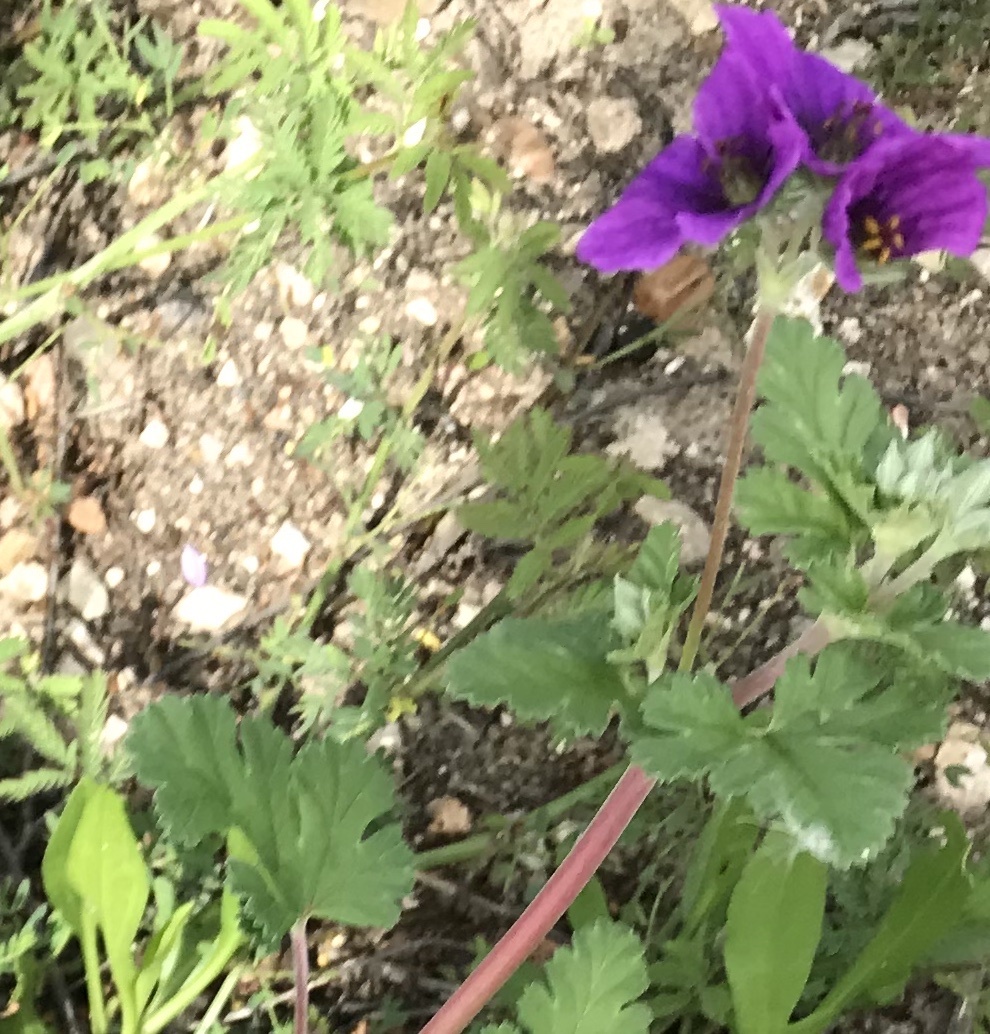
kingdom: Plantae
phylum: Tracheophyta
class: Magnoliopsida
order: Geraniales
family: Geraniaceae
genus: Erodium
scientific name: Erodium texanum
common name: Texas stork's-bill
